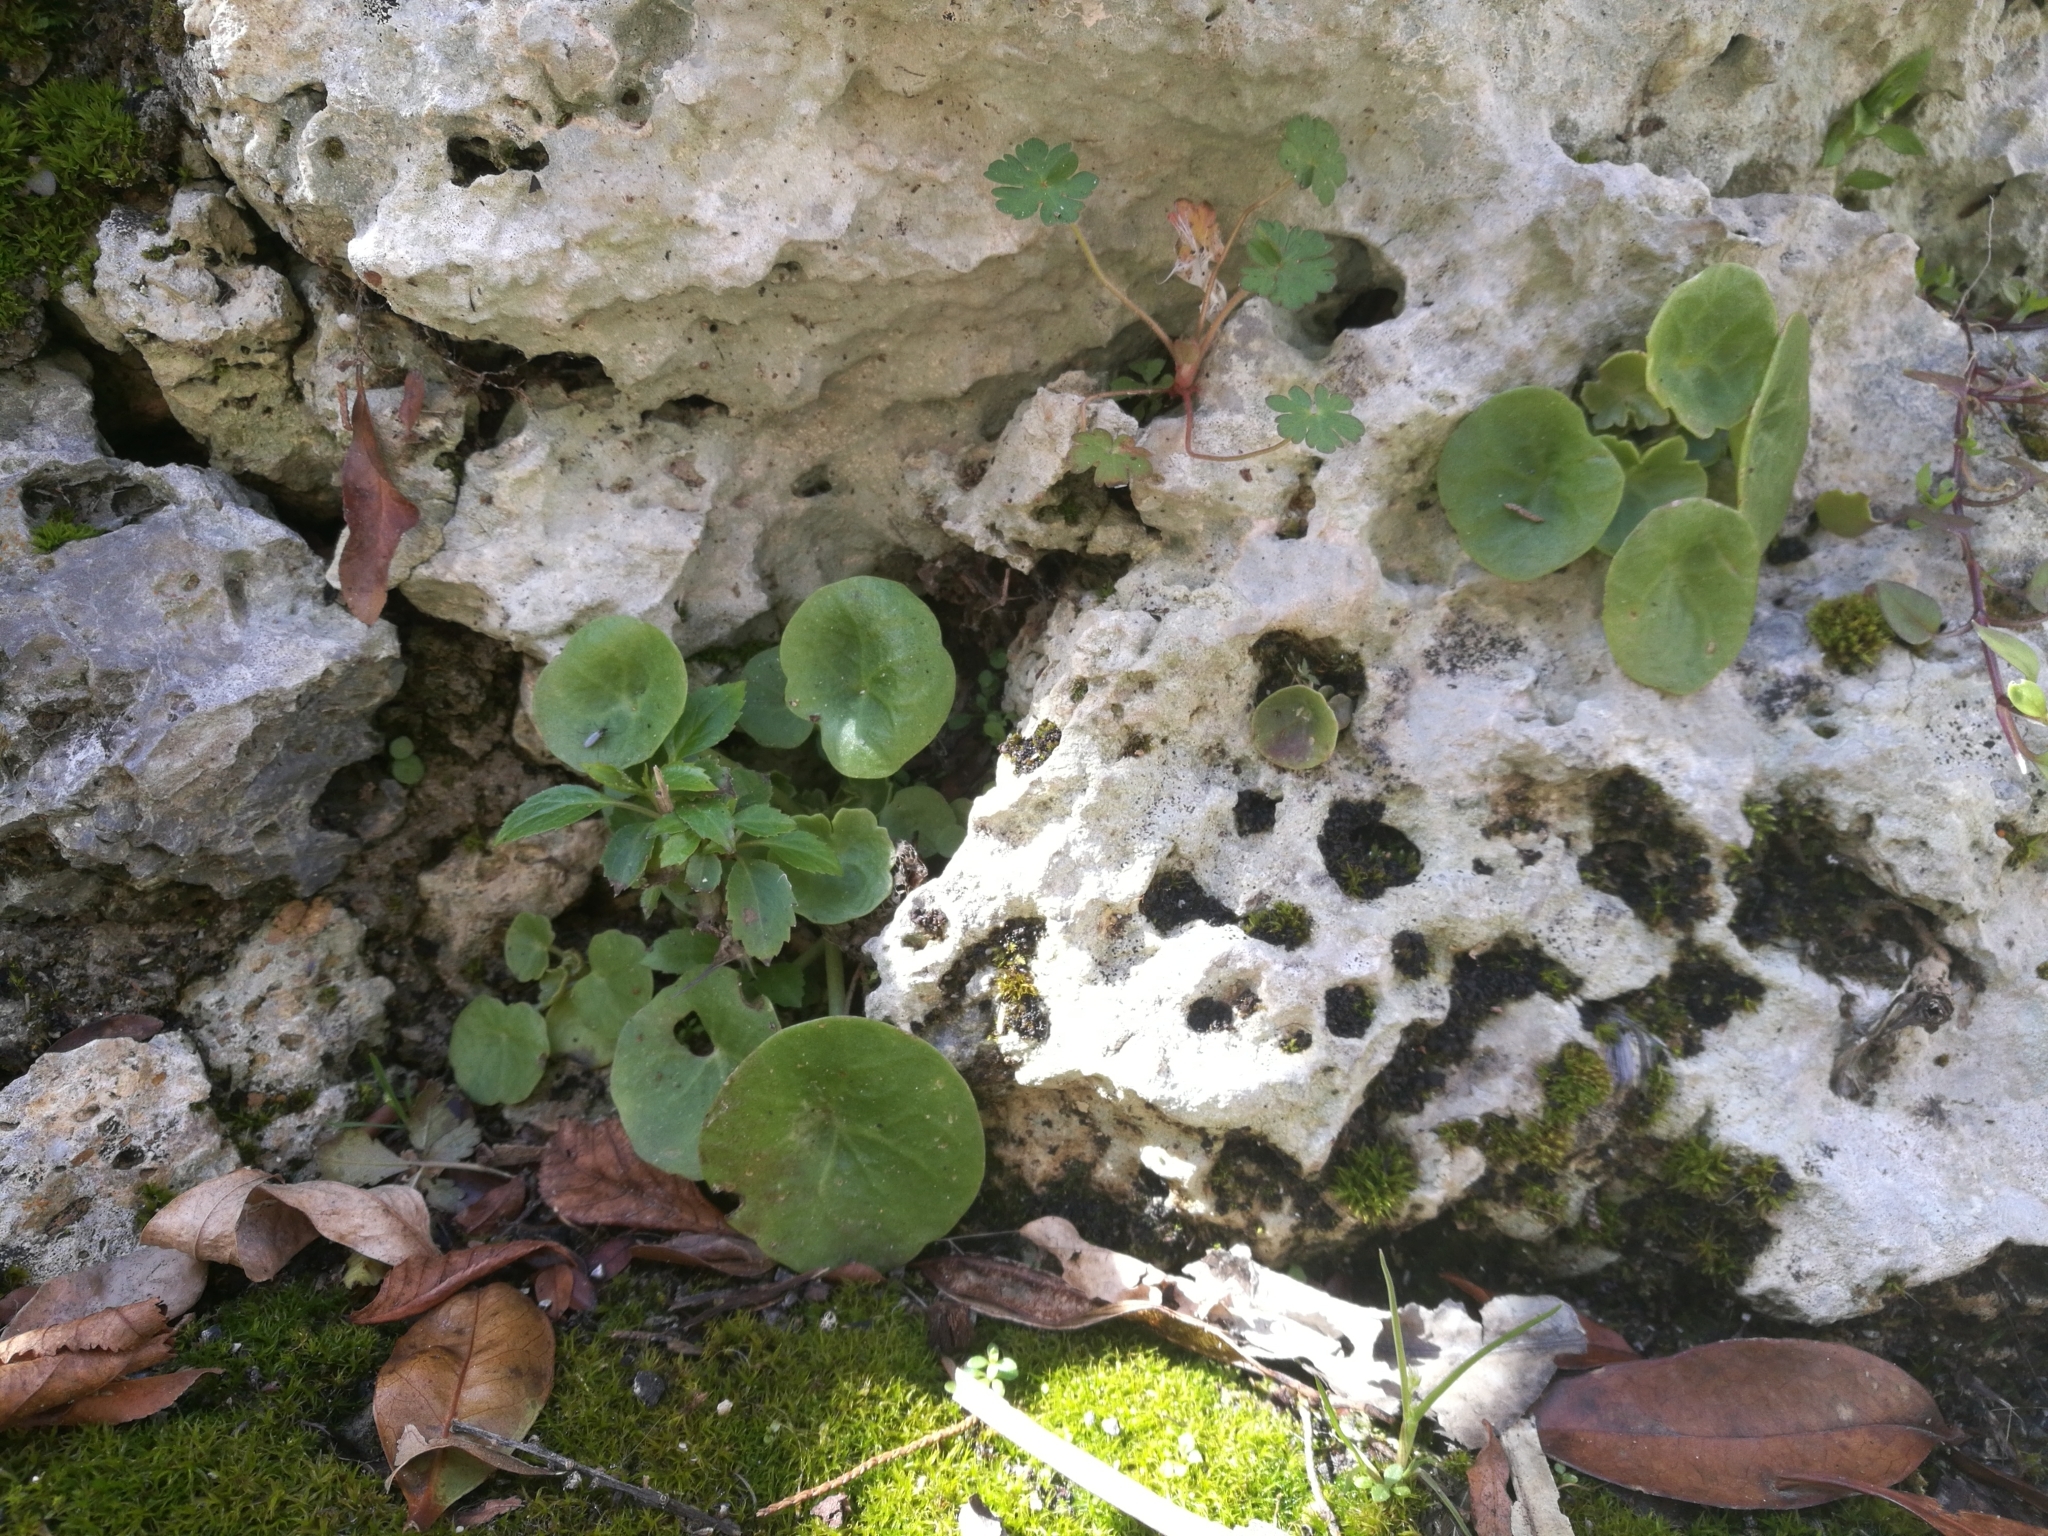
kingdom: Plantae
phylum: Tracheophyta
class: Magnoliopsida
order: Saxifragales
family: Crassulaceae
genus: Umbilicus
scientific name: Umbilicus rupestris
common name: Navelwort
